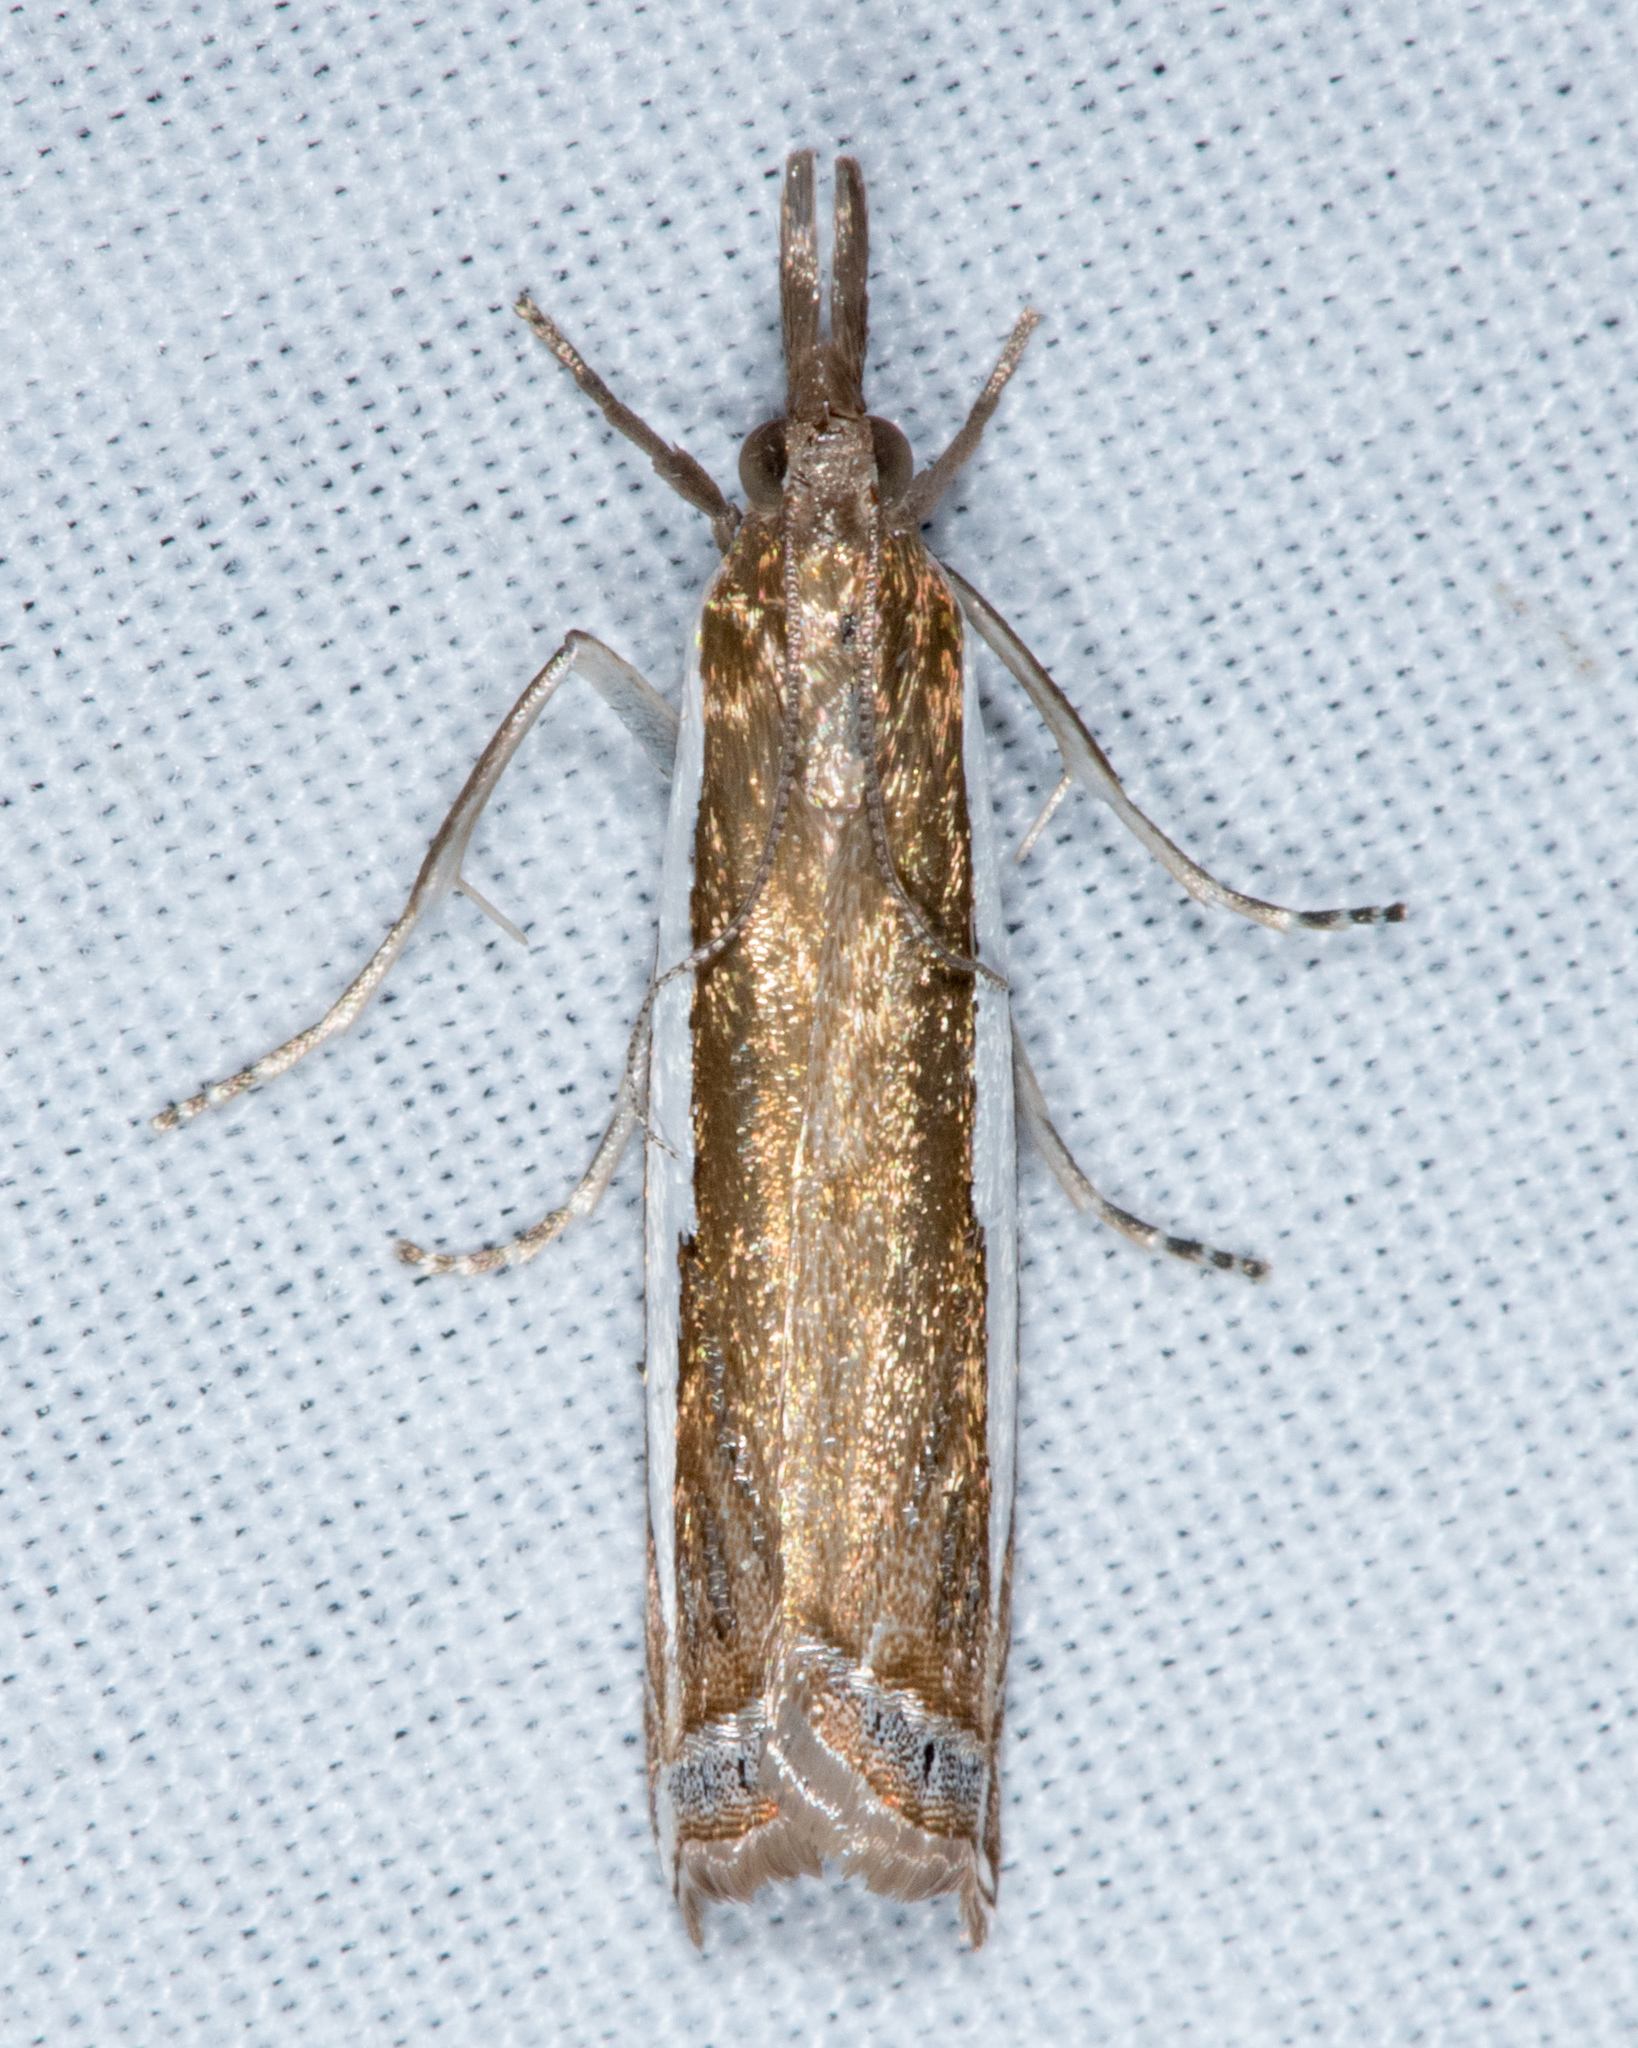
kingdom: Animalia
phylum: Arthropoda
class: Insecta
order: Lepidoptera
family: Crambidae
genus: Crambus
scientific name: Crambus
